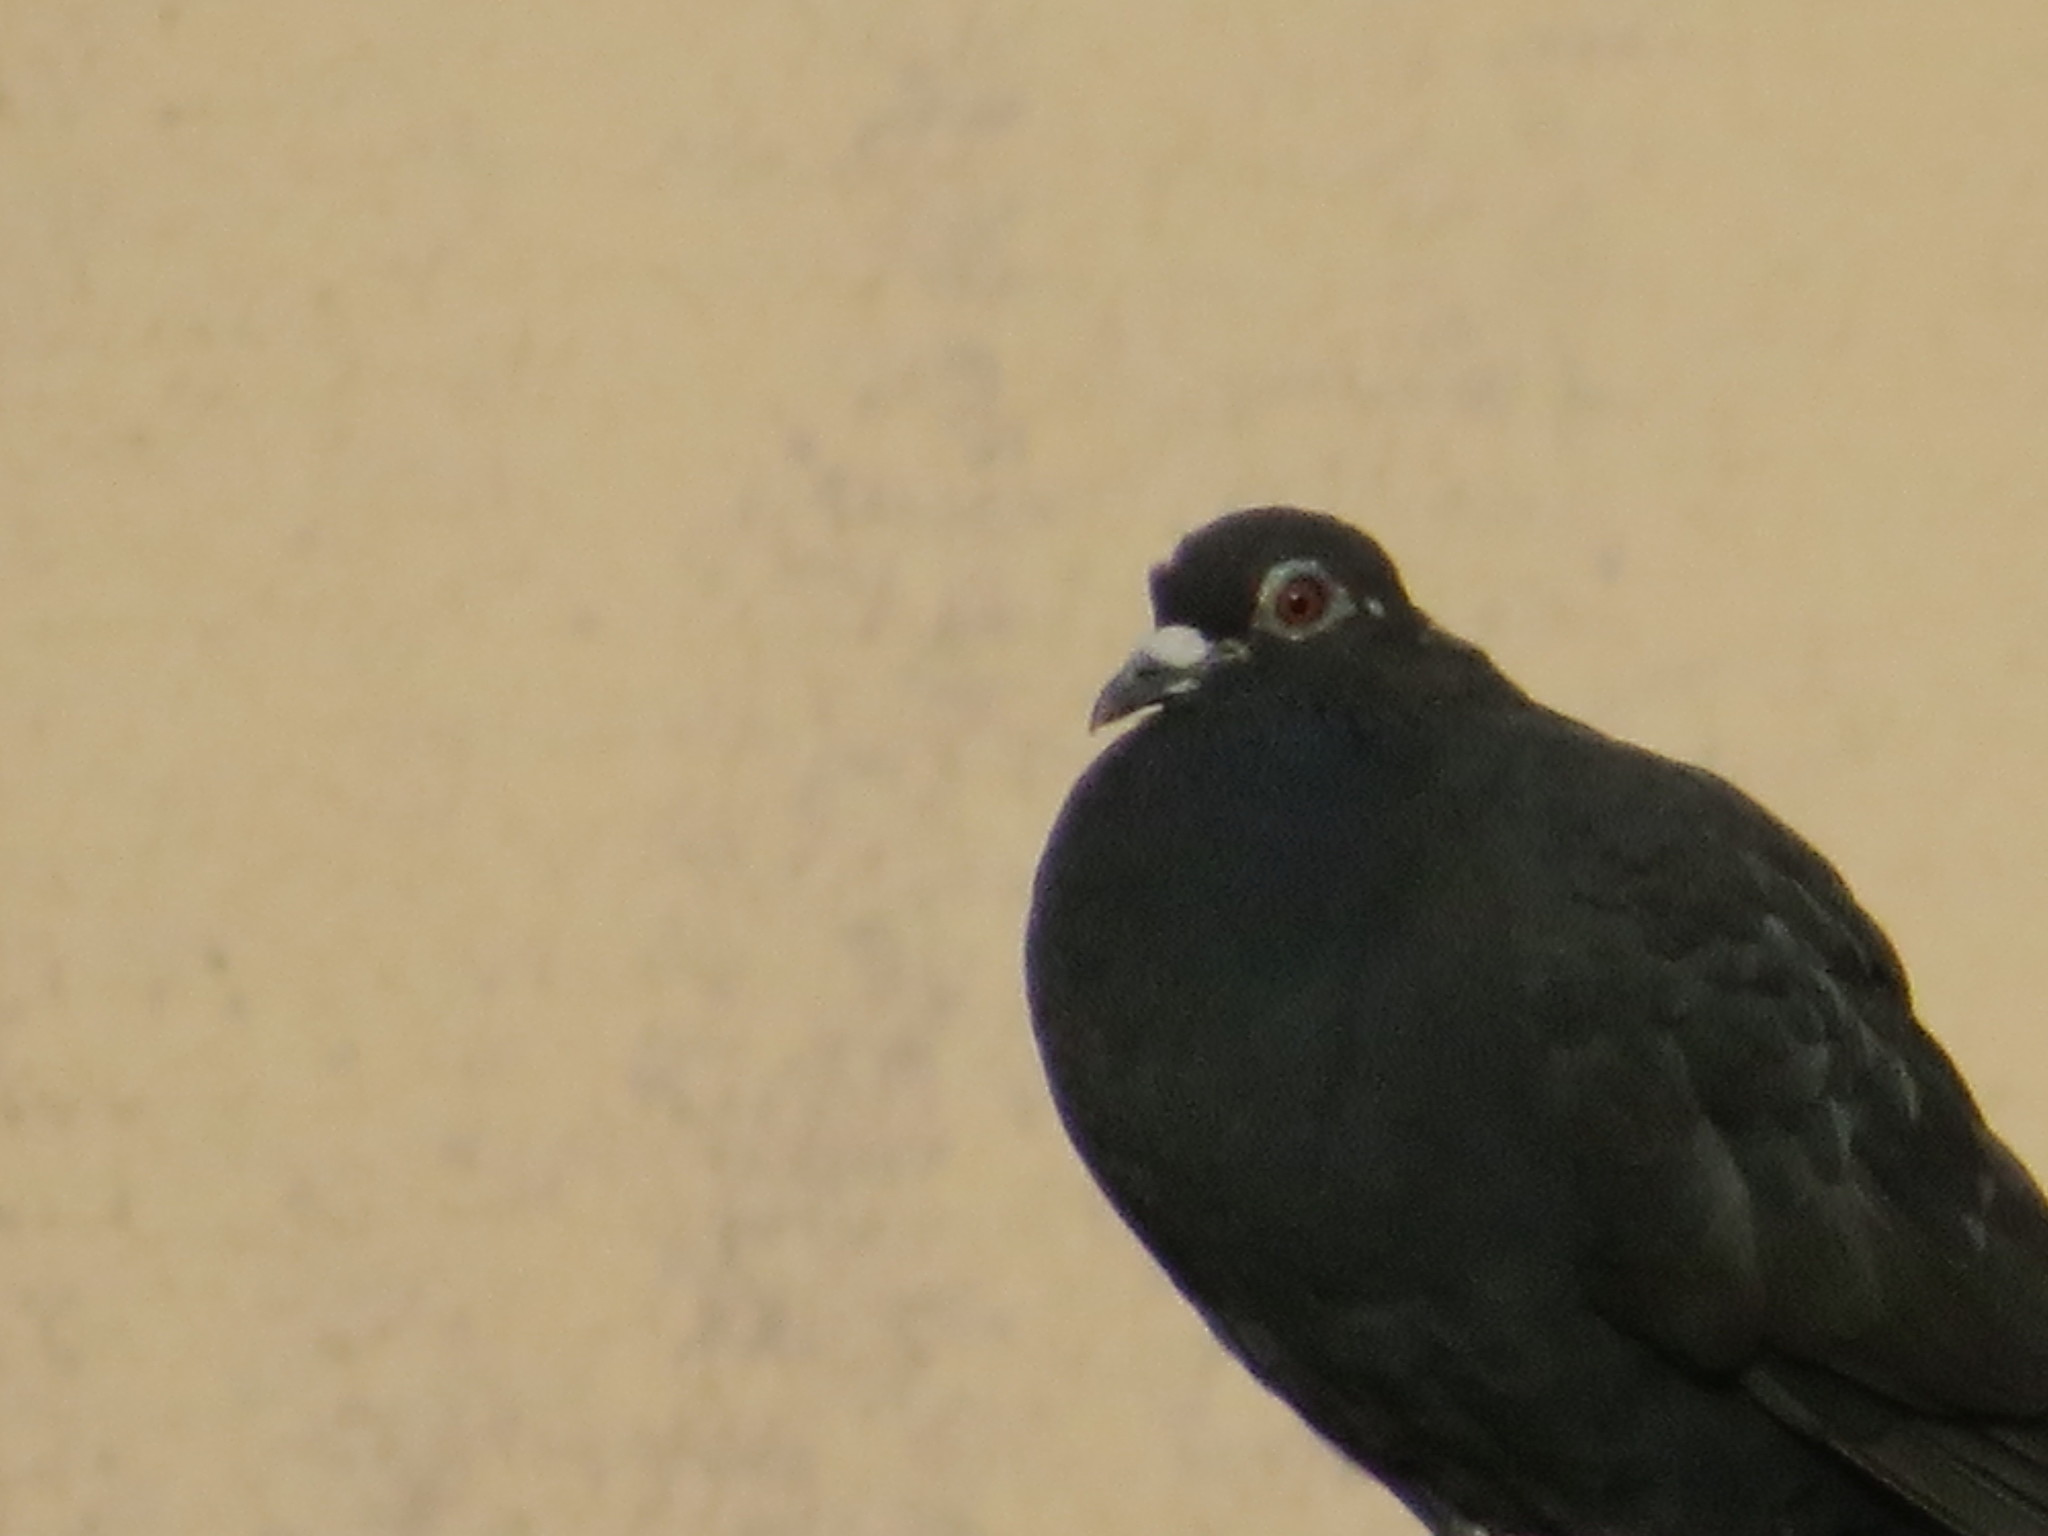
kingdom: Animalia
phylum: Chordata
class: Aves
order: Columbiformes
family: Columbidae
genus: Columba
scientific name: Columba livia
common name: Rock pigeon
